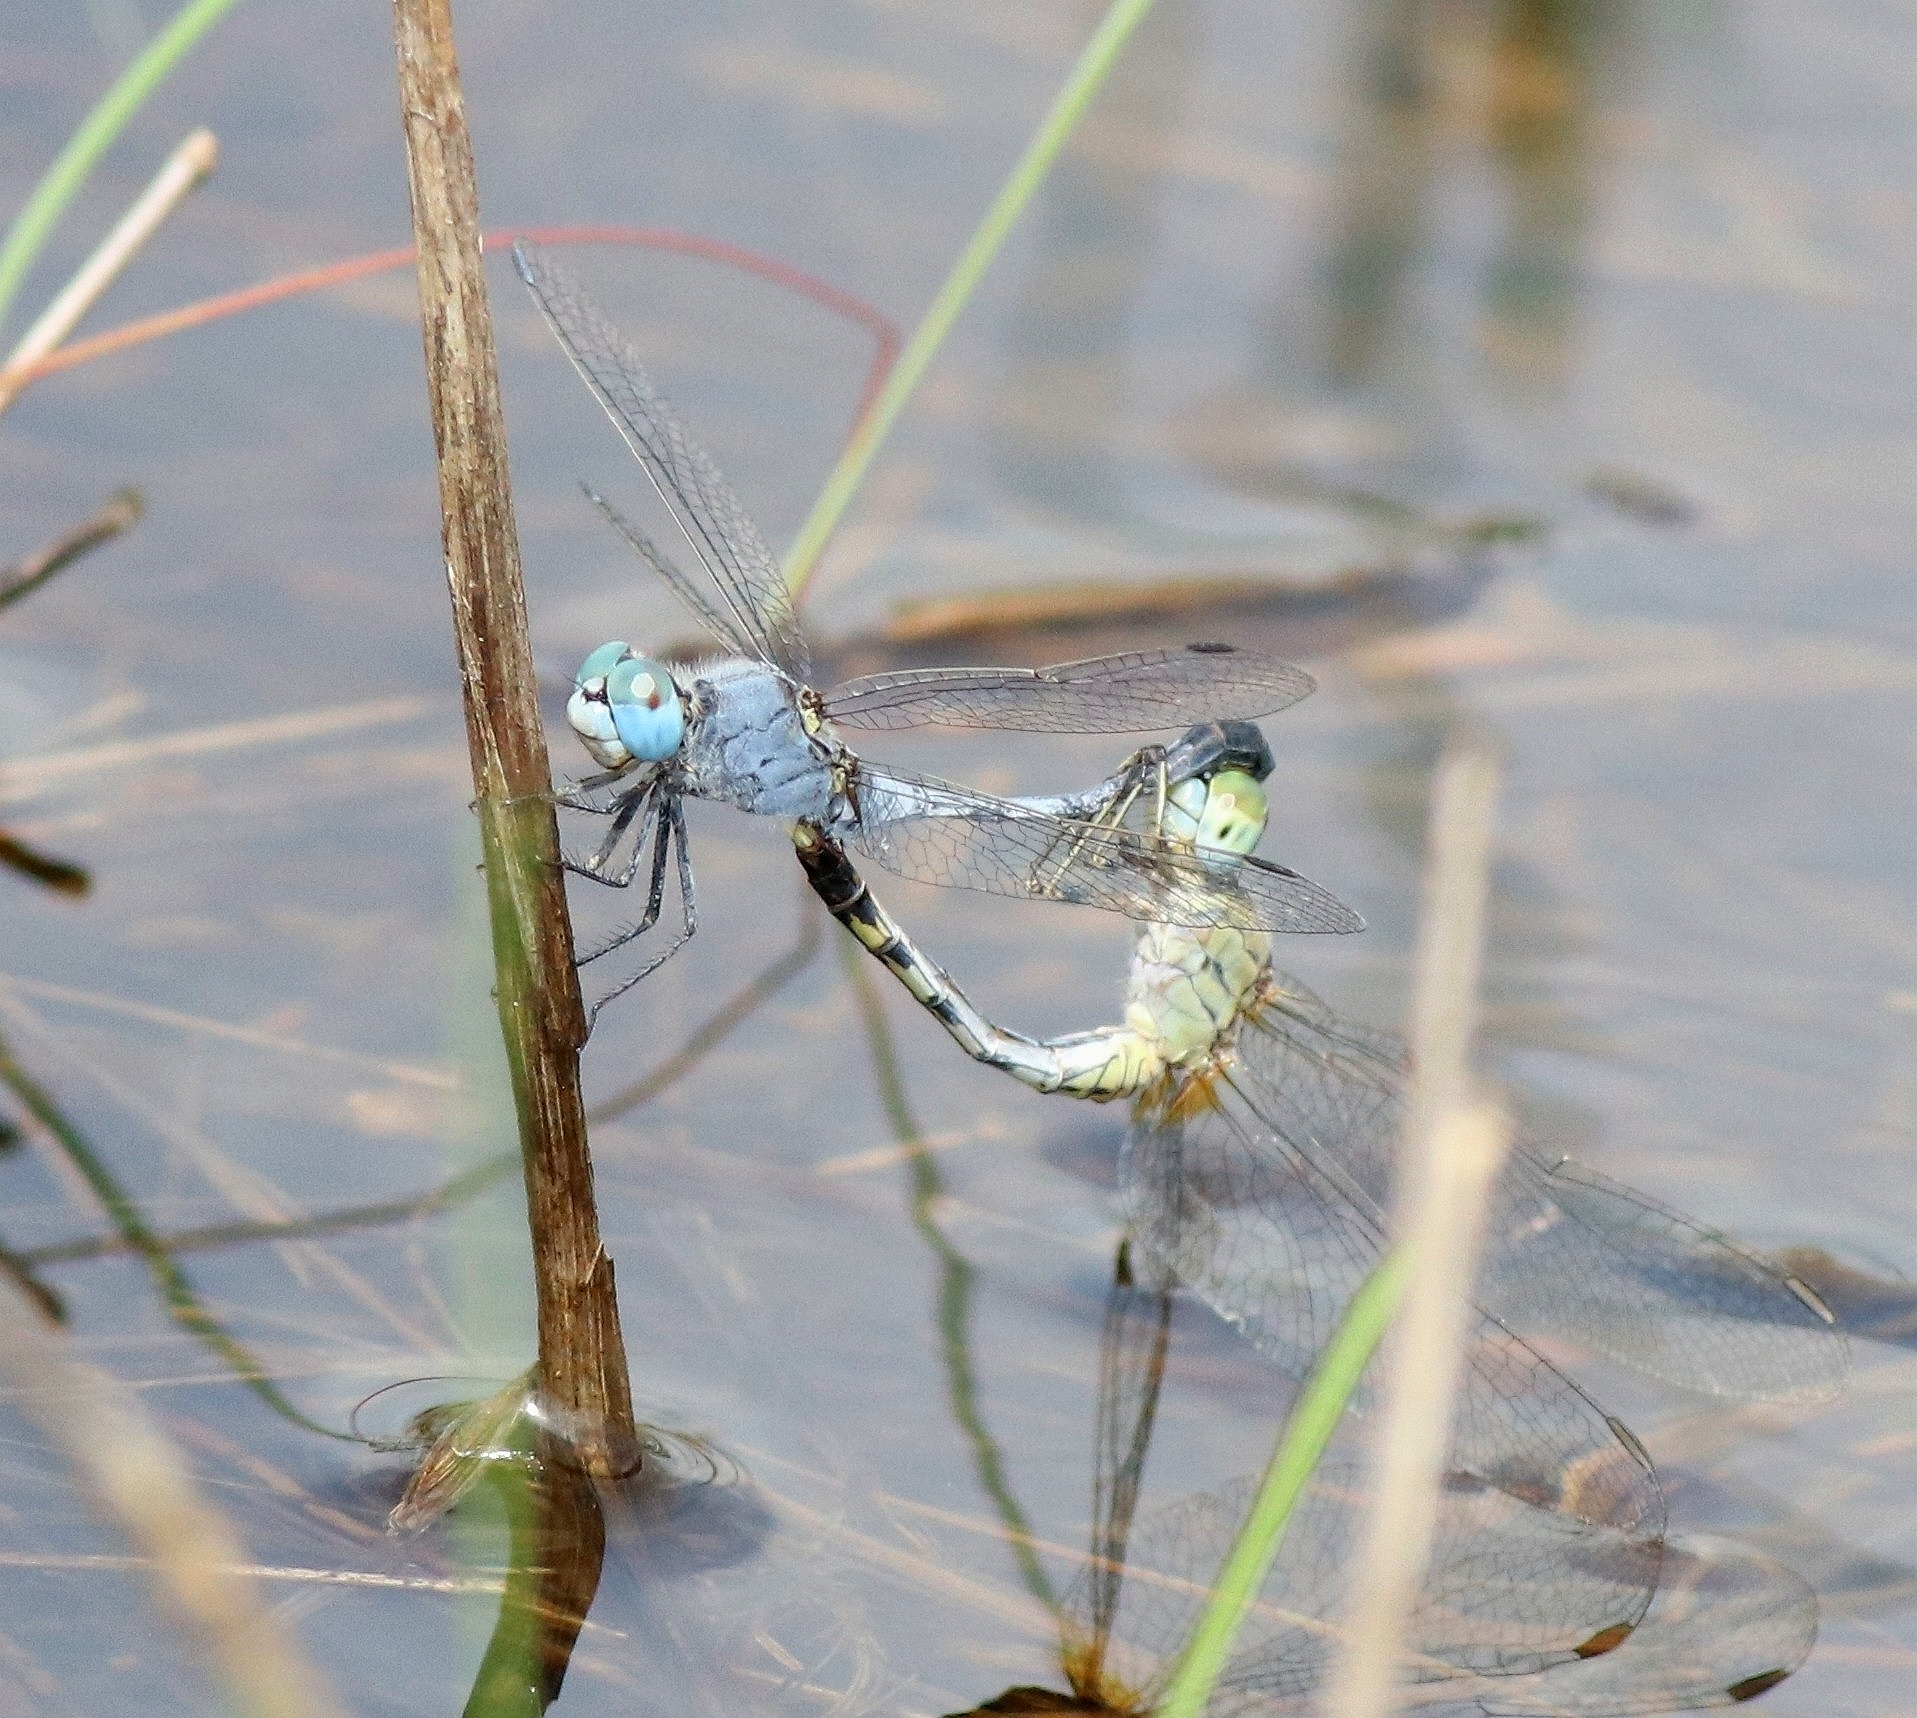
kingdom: Animalia
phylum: Arthropoda
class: Insecta
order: Odonata
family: Libellulidae
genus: Diplacodes
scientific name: Diplacodes trivialis
